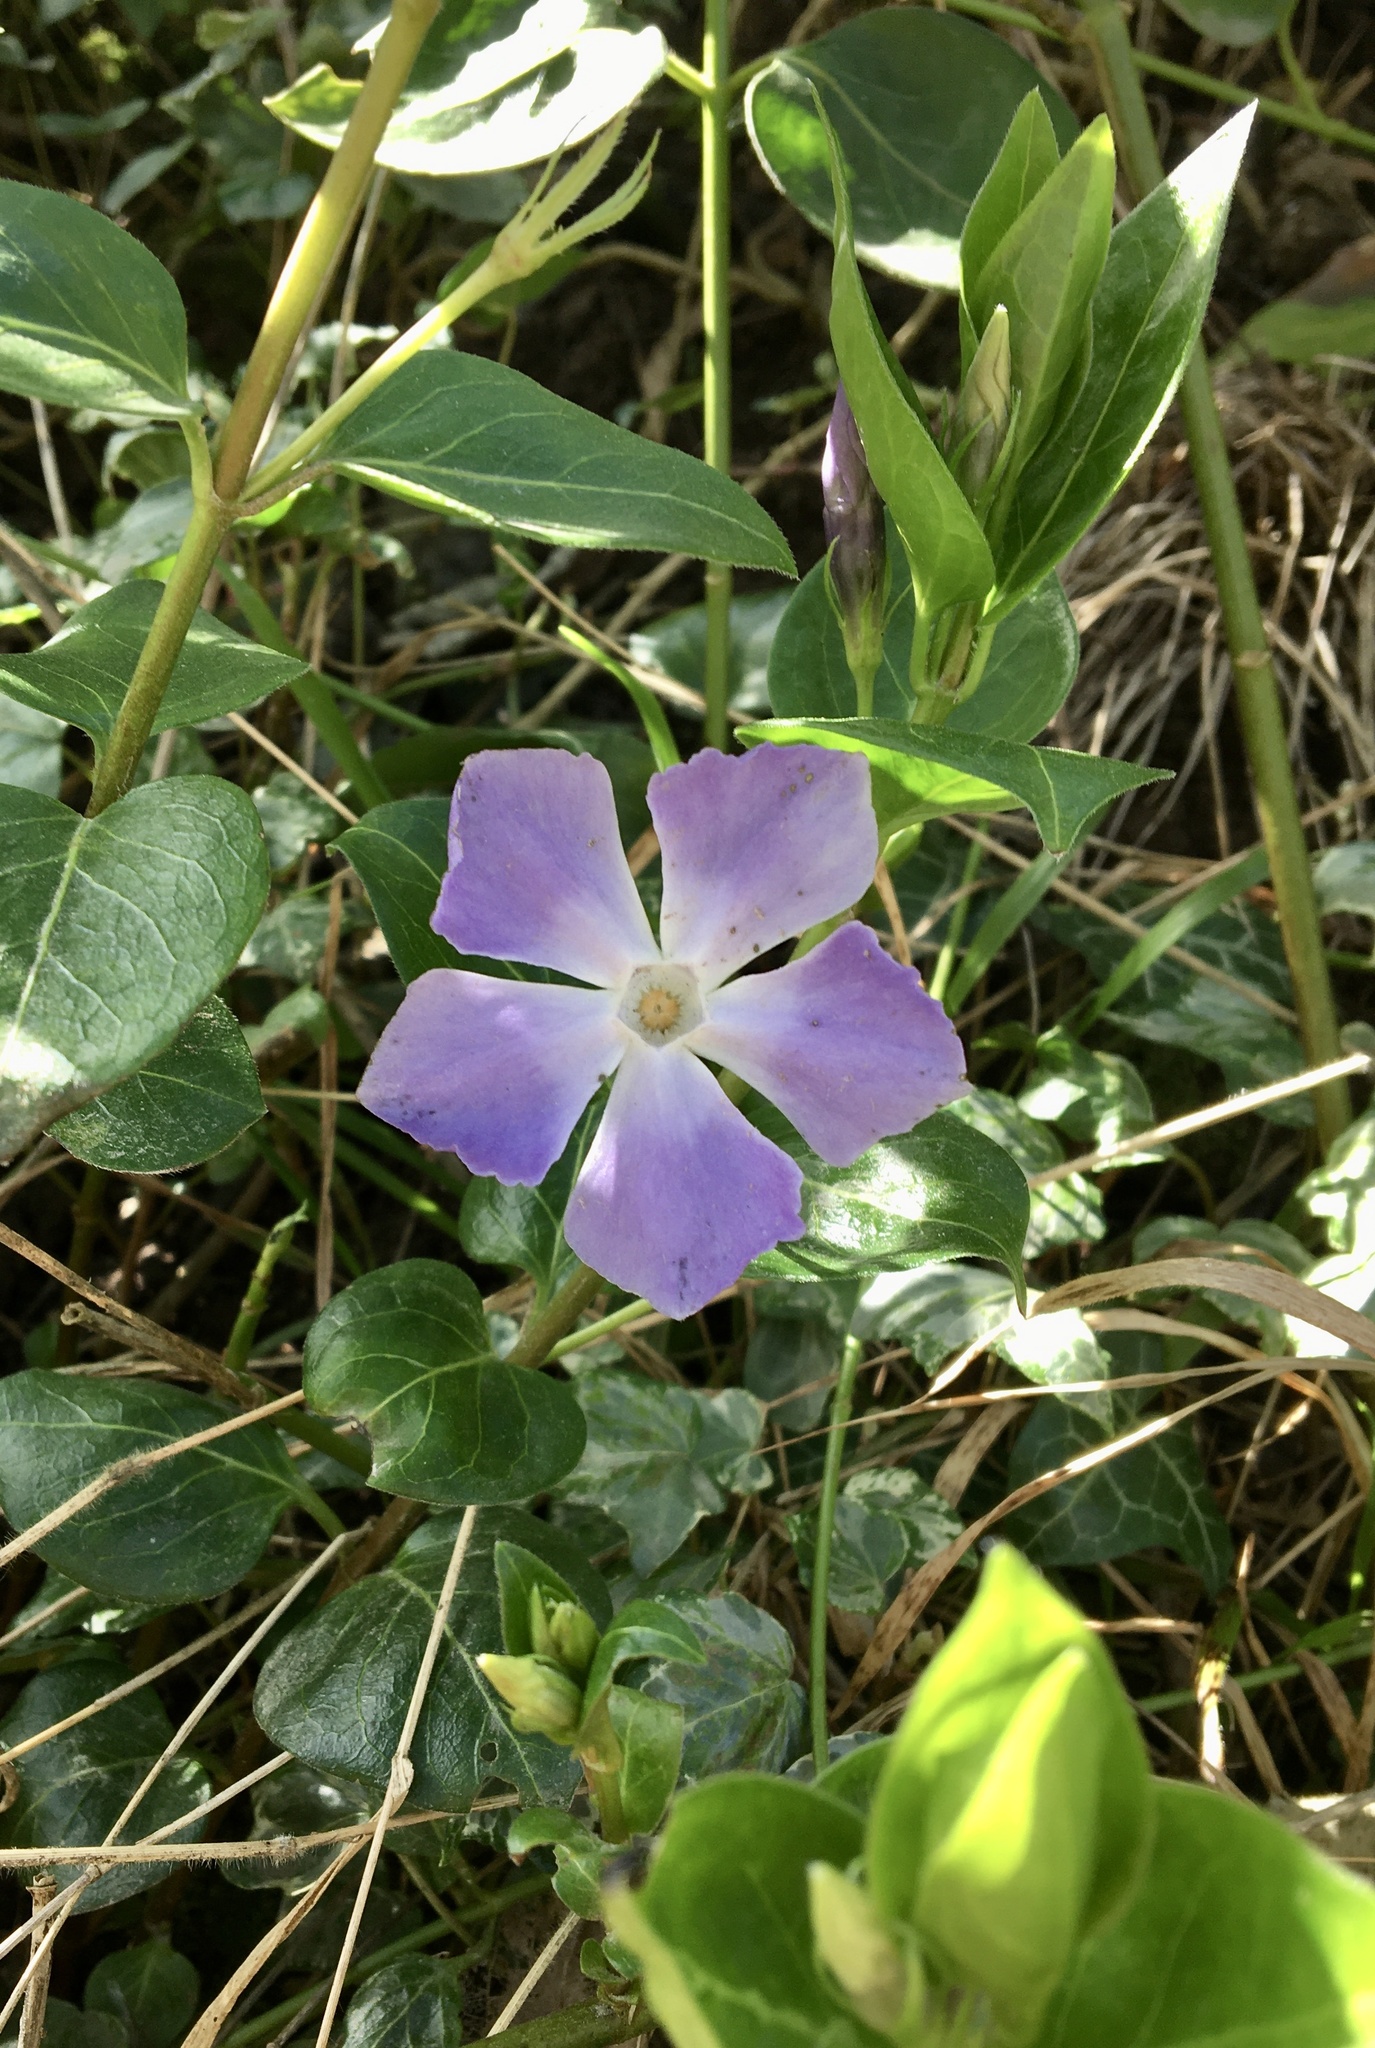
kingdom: Plantae
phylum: Tracheophyta
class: Magnoliopsida
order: Gentianales
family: Apocynaceae
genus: Vinca
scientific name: Vinca major
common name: Greater periwinkle
